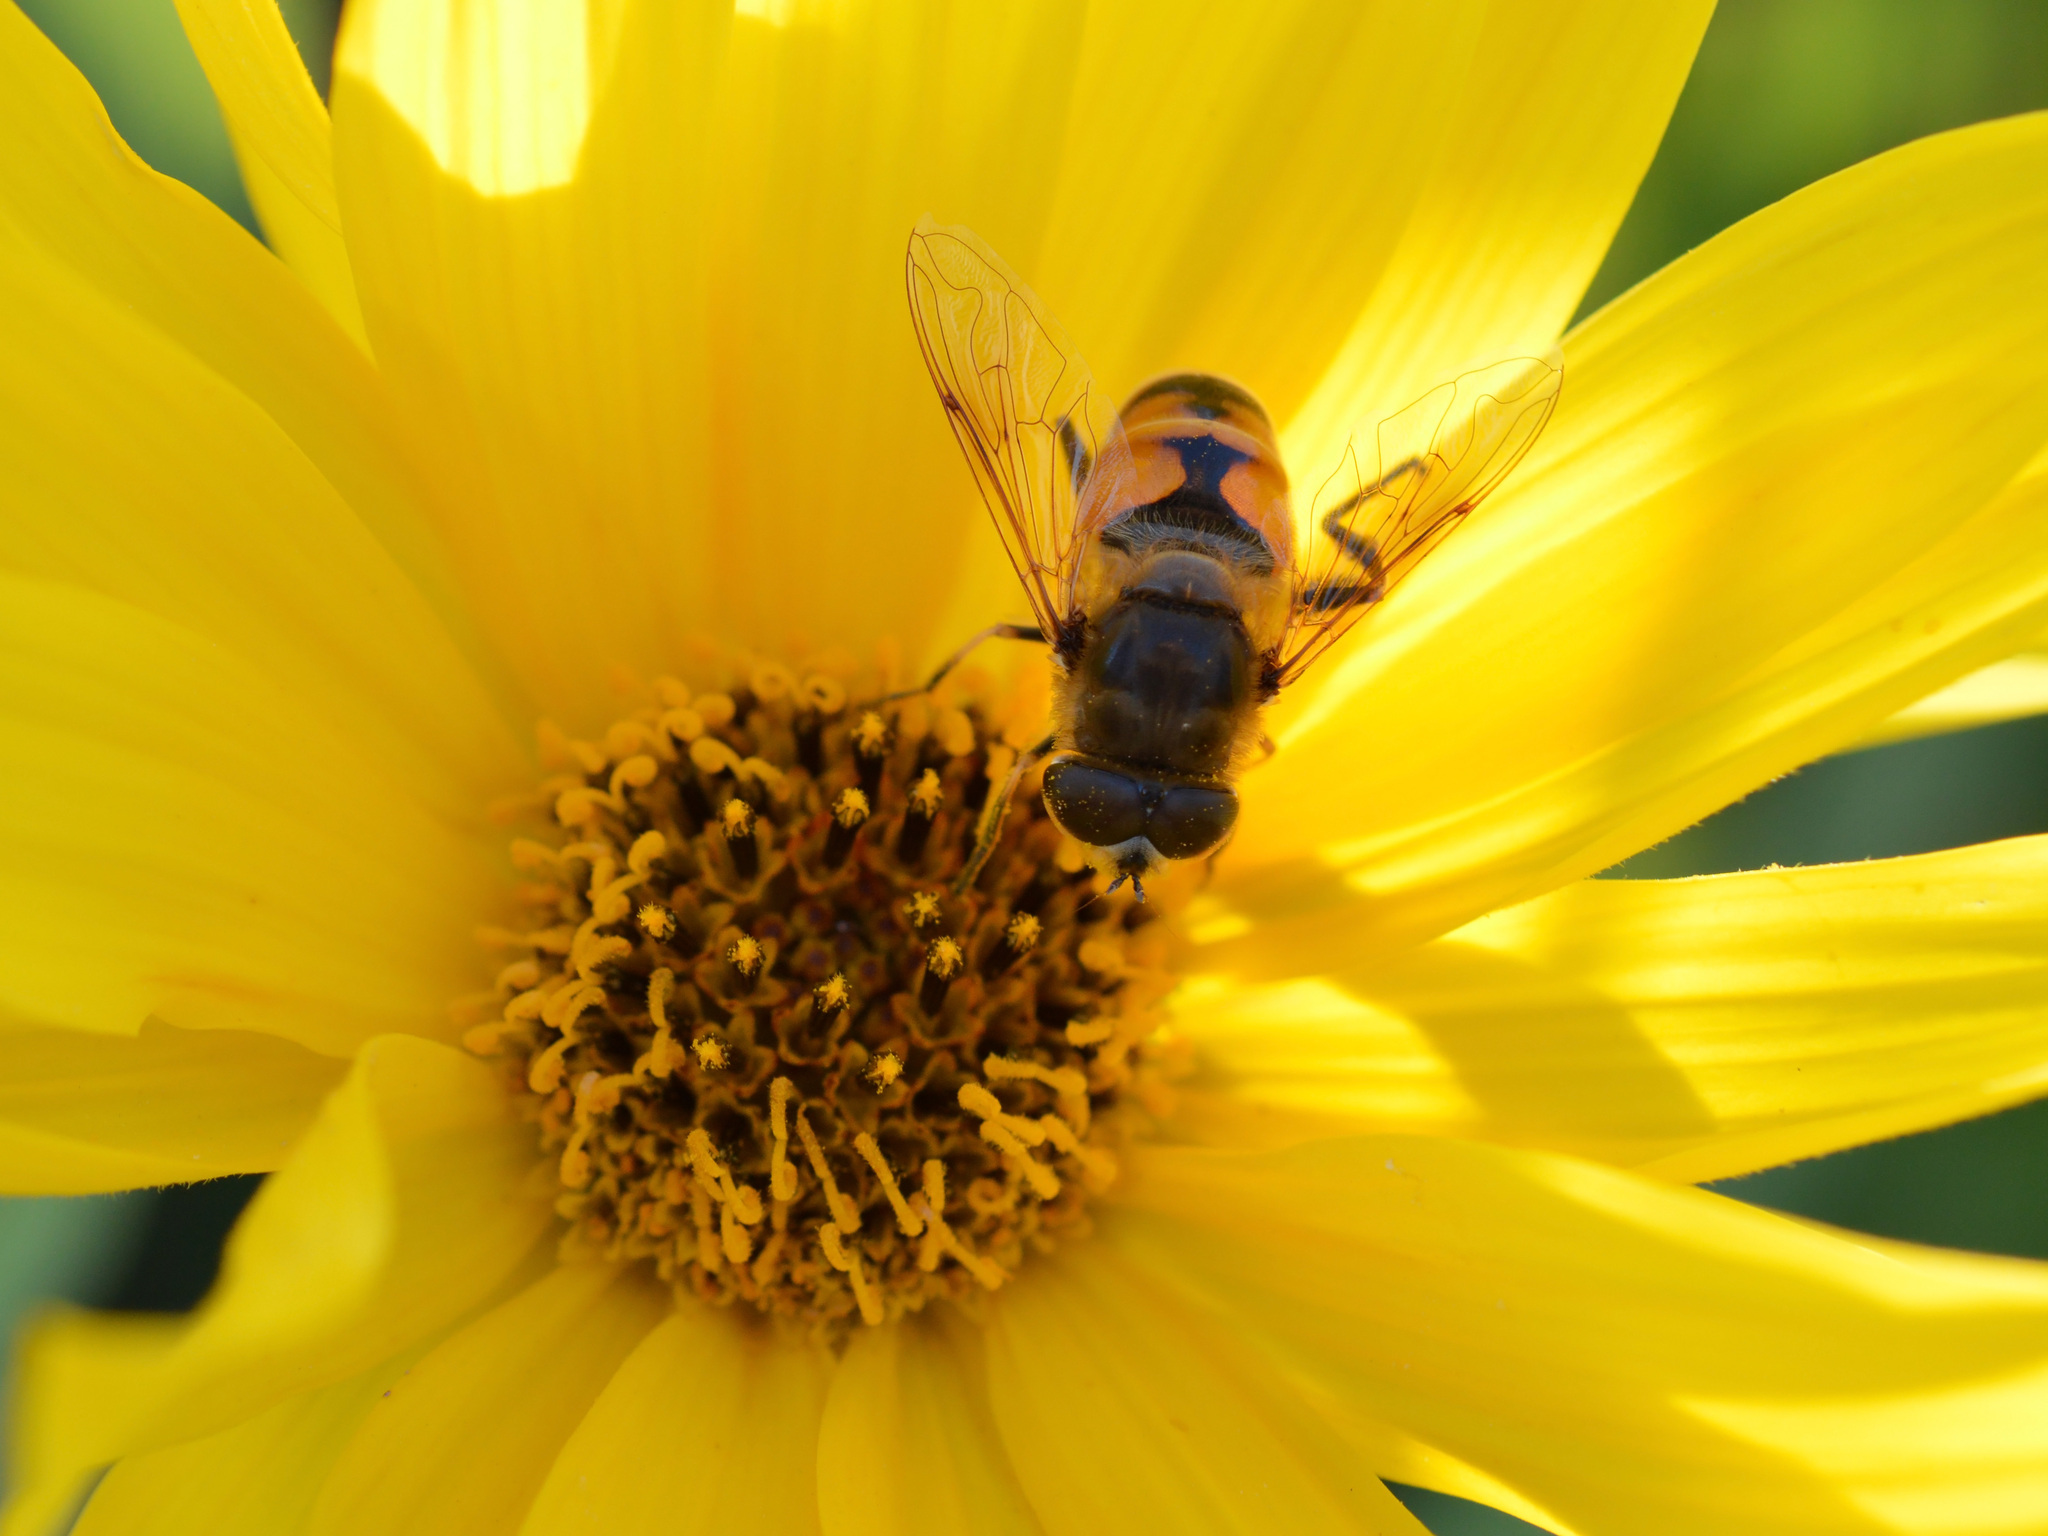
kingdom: Animalia
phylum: Arthropoda
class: Insecta
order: Diptera
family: Syrphidae
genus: Eristalis
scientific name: Eristalis tenax
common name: Drone fly
